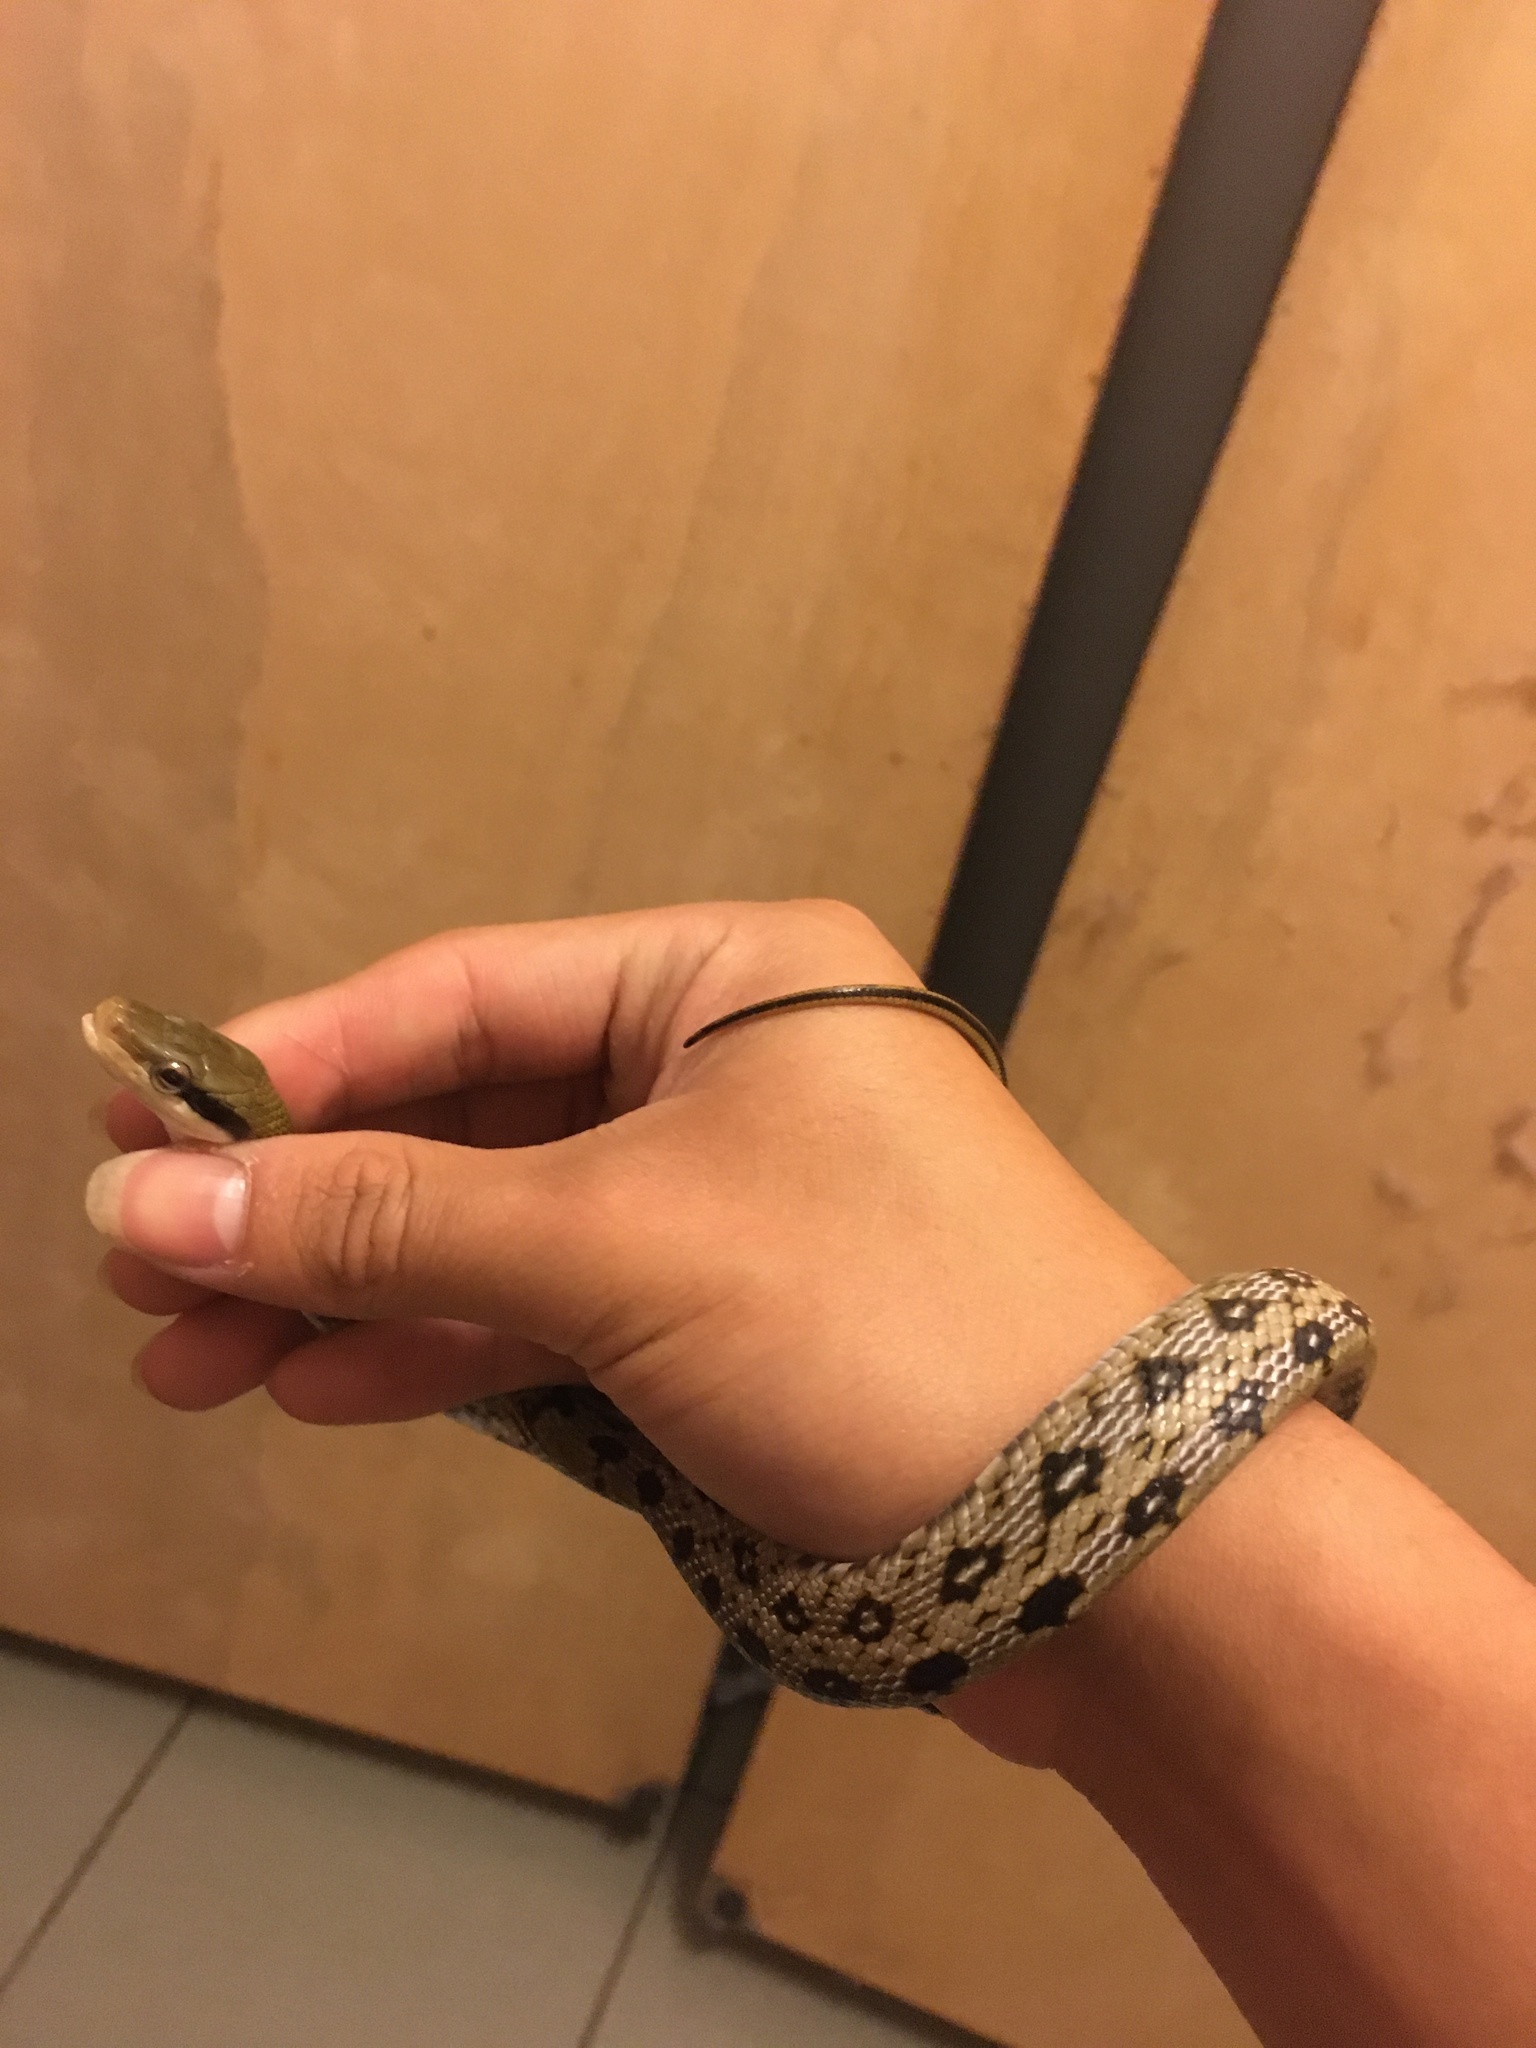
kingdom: Animalia
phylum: Chordata
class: Squamata
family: Colubridae
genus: Elaphe
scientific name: Elaphe taeniura
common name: Beauty snake
